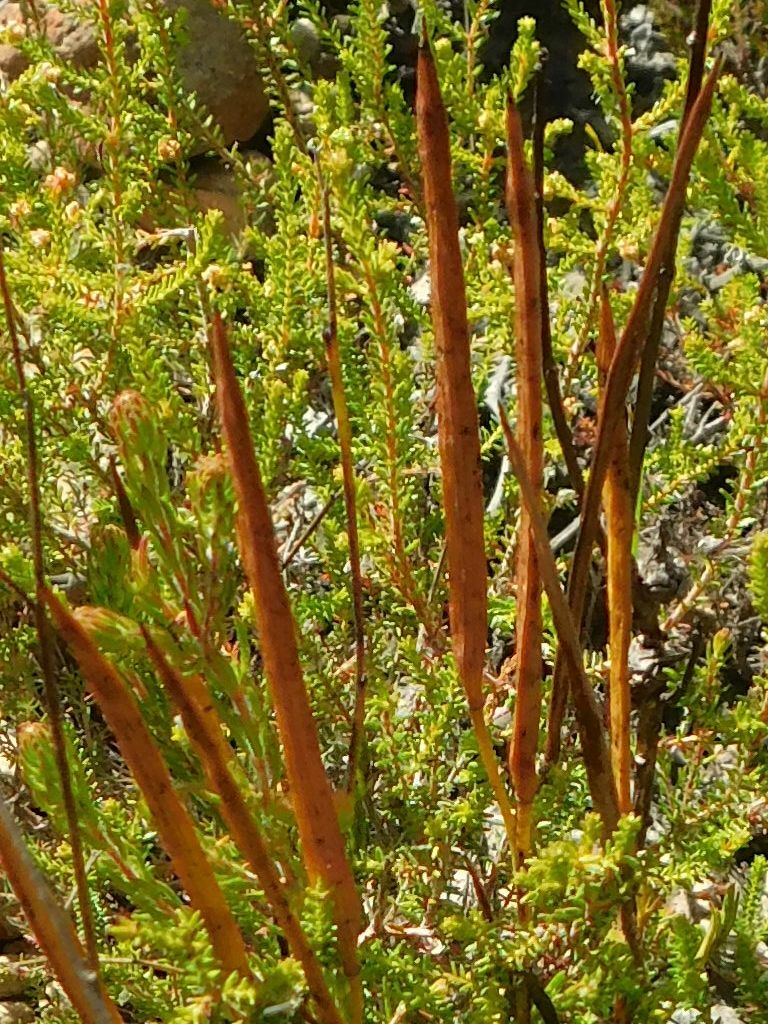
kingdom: Plantae
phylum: Tracheophyta
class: Magnoliopsida
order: Brassicales
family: Brassicaceae
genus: Heliophila
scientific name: Heliophila scoparia
